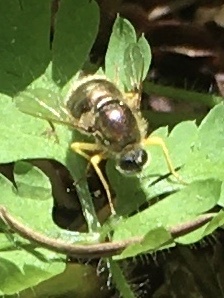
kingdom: Animalia
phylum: Arthropoda
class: Insecta
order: Diptera
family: Acroceridae
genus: Eulonchus
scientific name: Eulonchus sapphirinus
